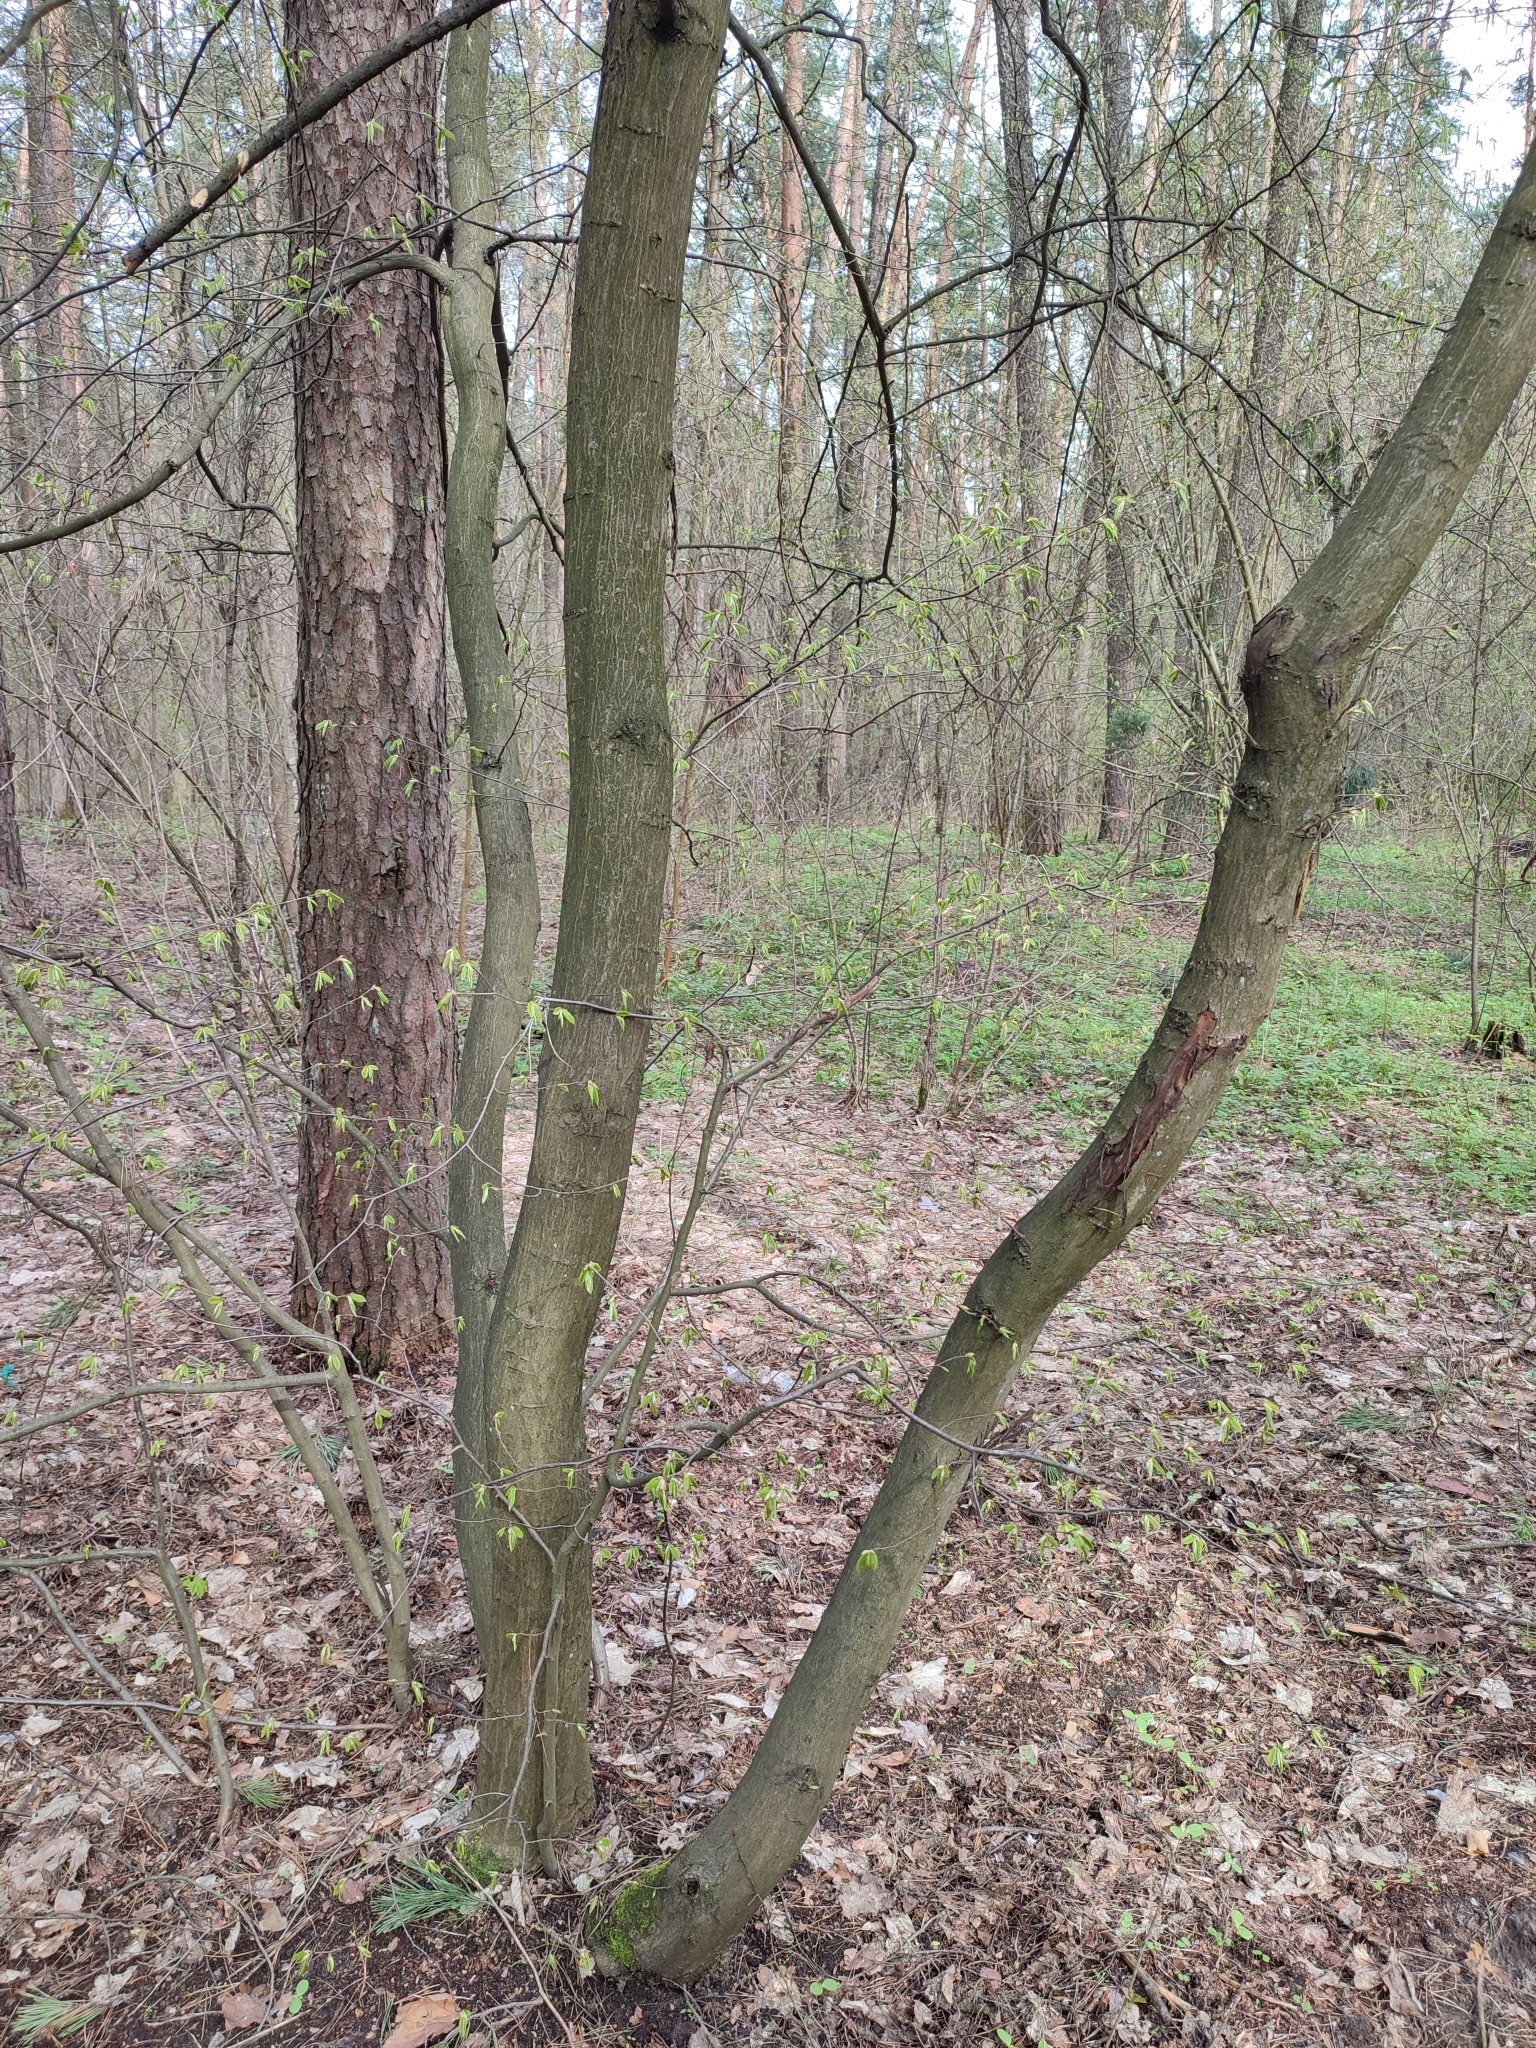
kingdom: Plantae
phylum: Tracheophyta
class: Magnoliopsida
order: Fagales
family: Betulaceae
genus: Carpinus
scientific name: Carpinus betulus
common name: Hornbeam
